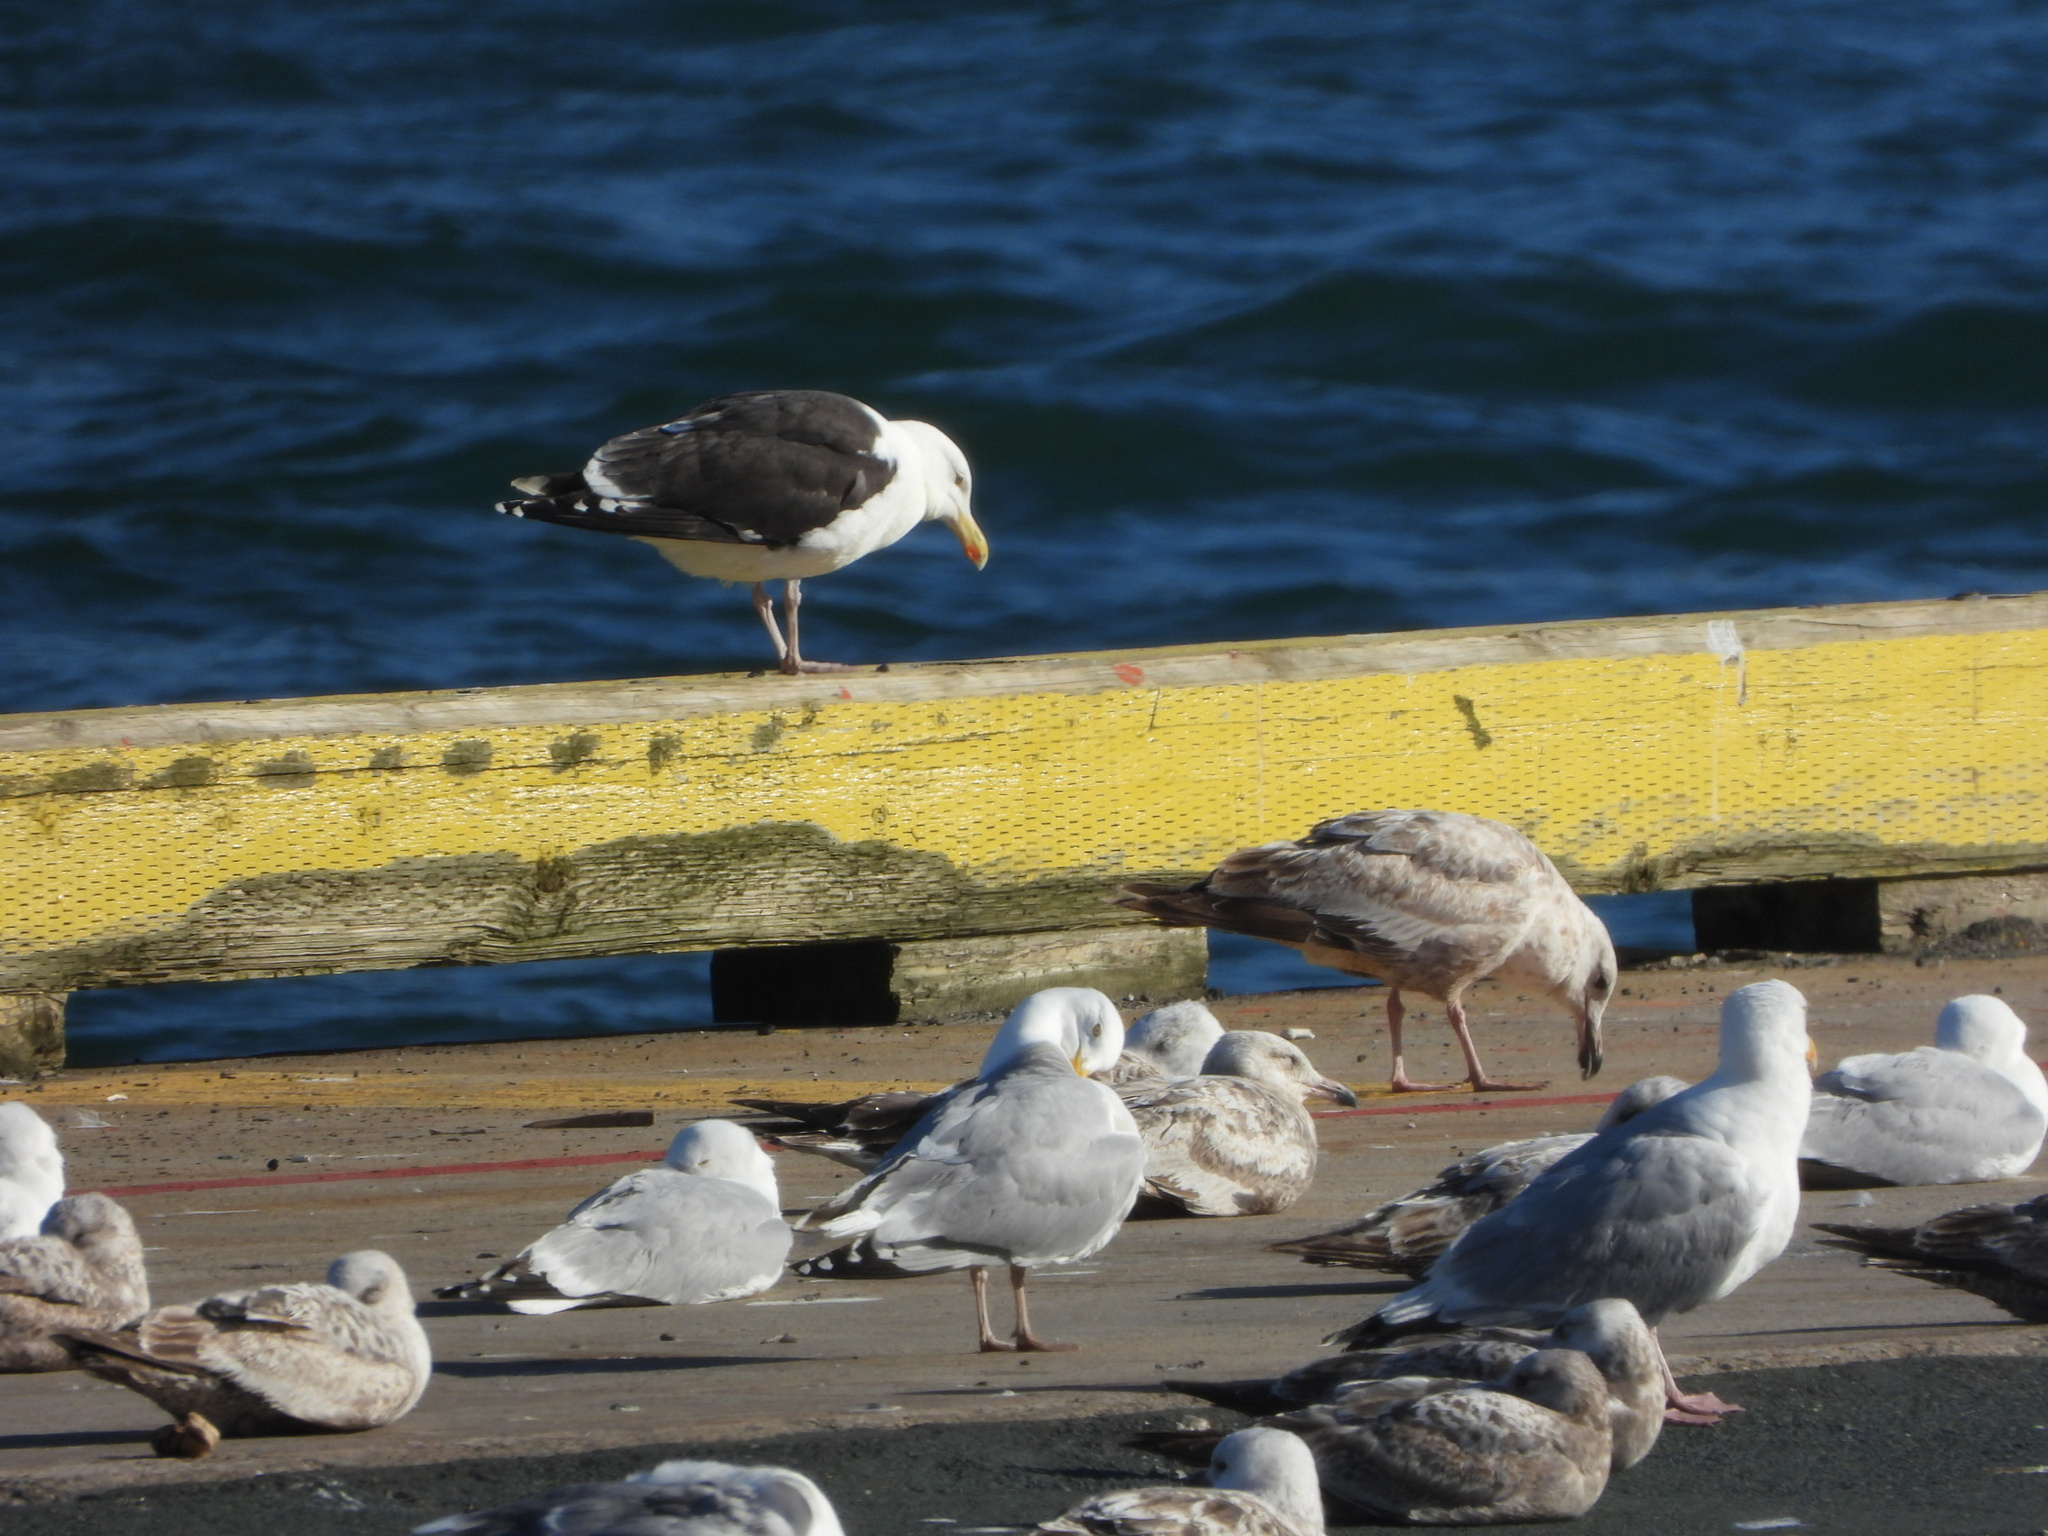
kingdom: Animalia
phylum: Chordata
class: Aves
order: Charadriiformes
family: Laridae
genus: Larus
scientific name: Larus smithsonianus
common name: American herring gull
